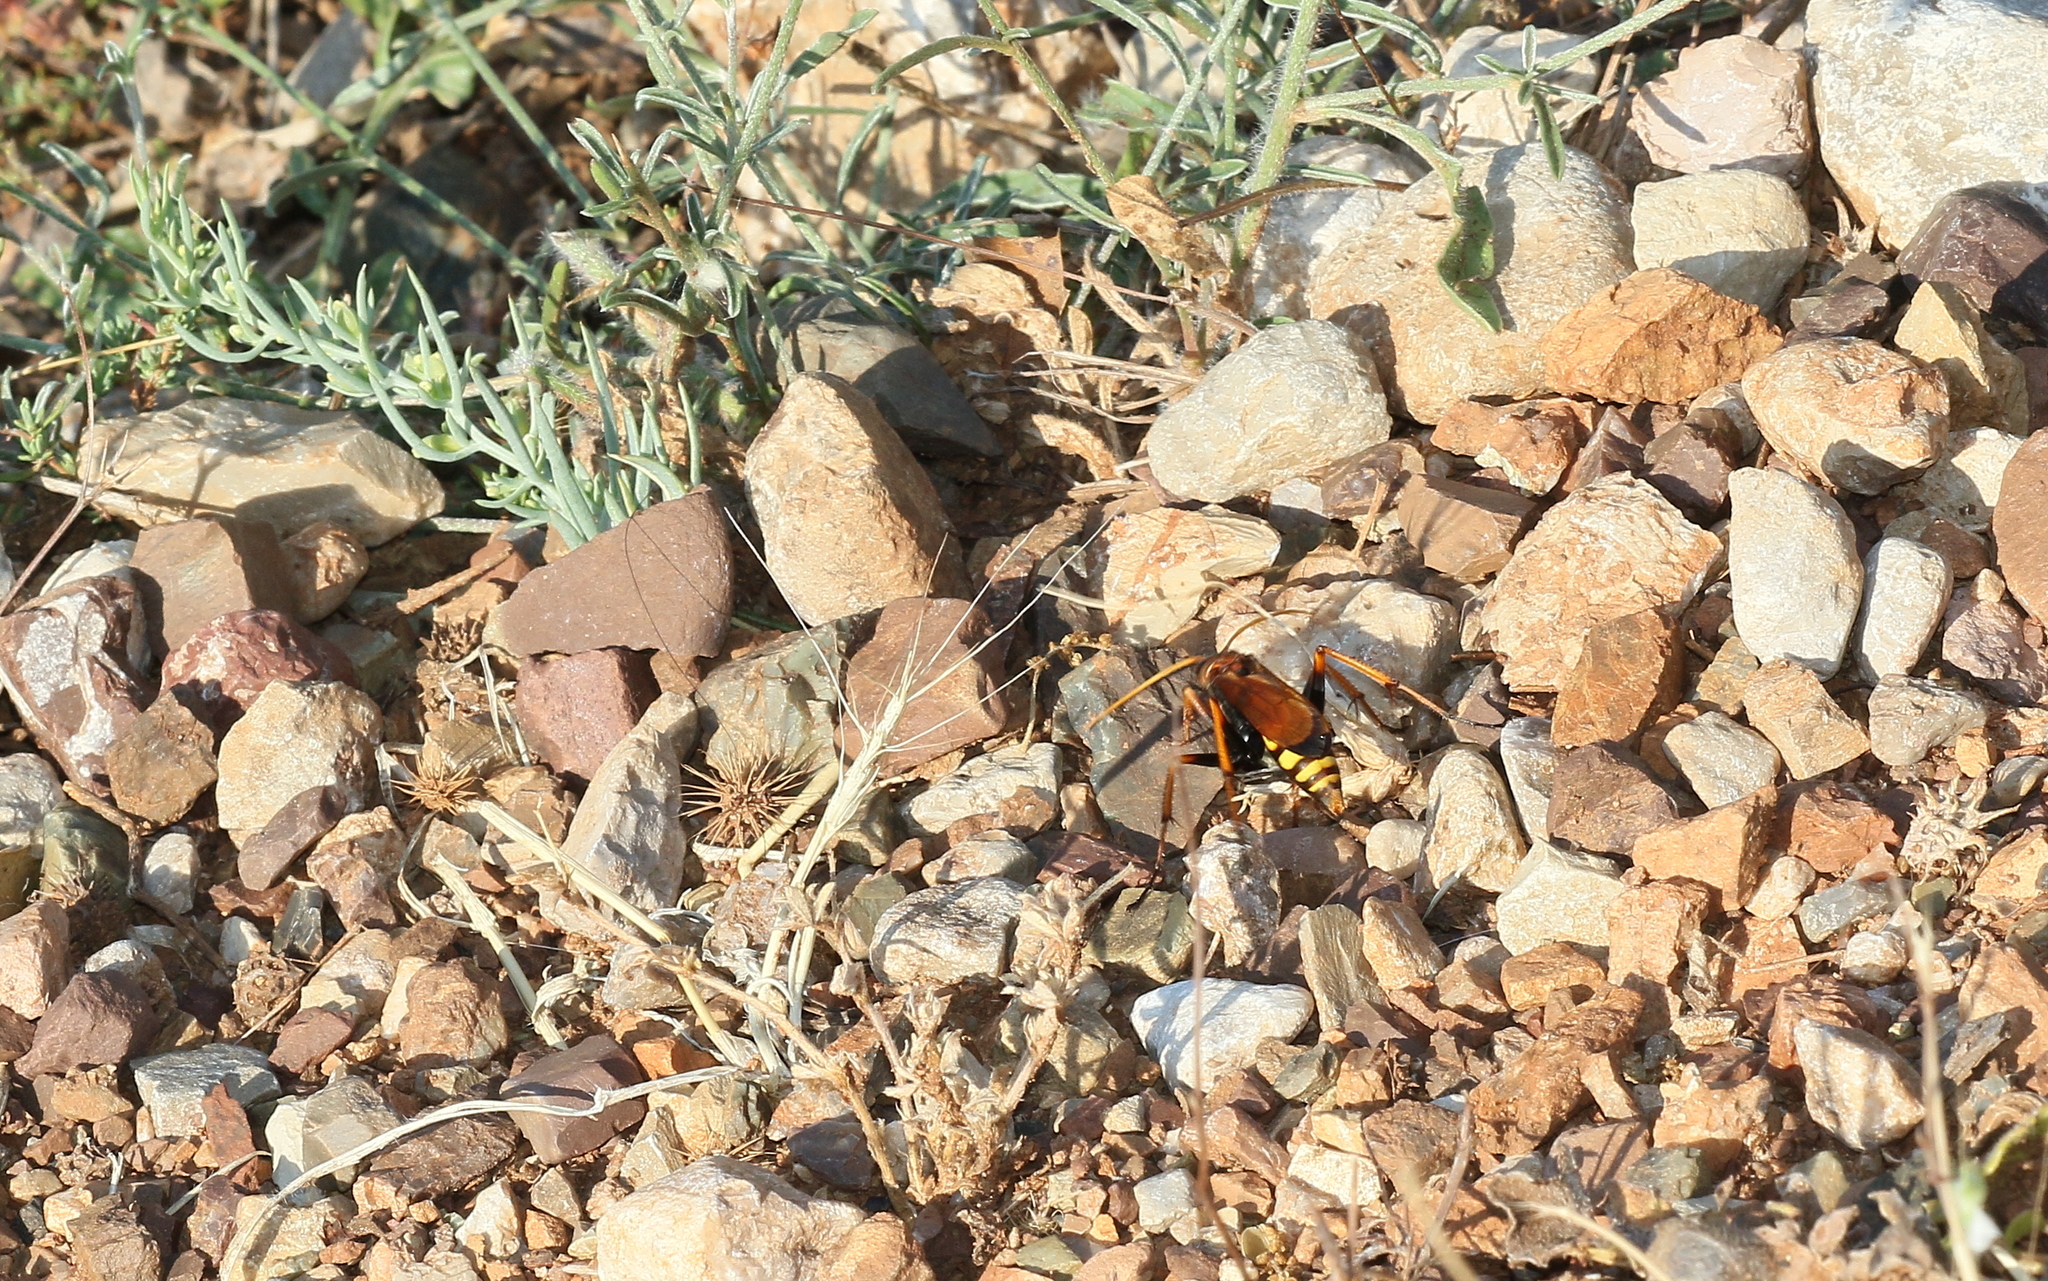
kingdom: Animalia
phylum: Arthropoda
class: Insecta
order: Hymenoptera
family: Pompilidae
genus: Cryptocheilus
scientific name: Cryptocheilus alternatus
